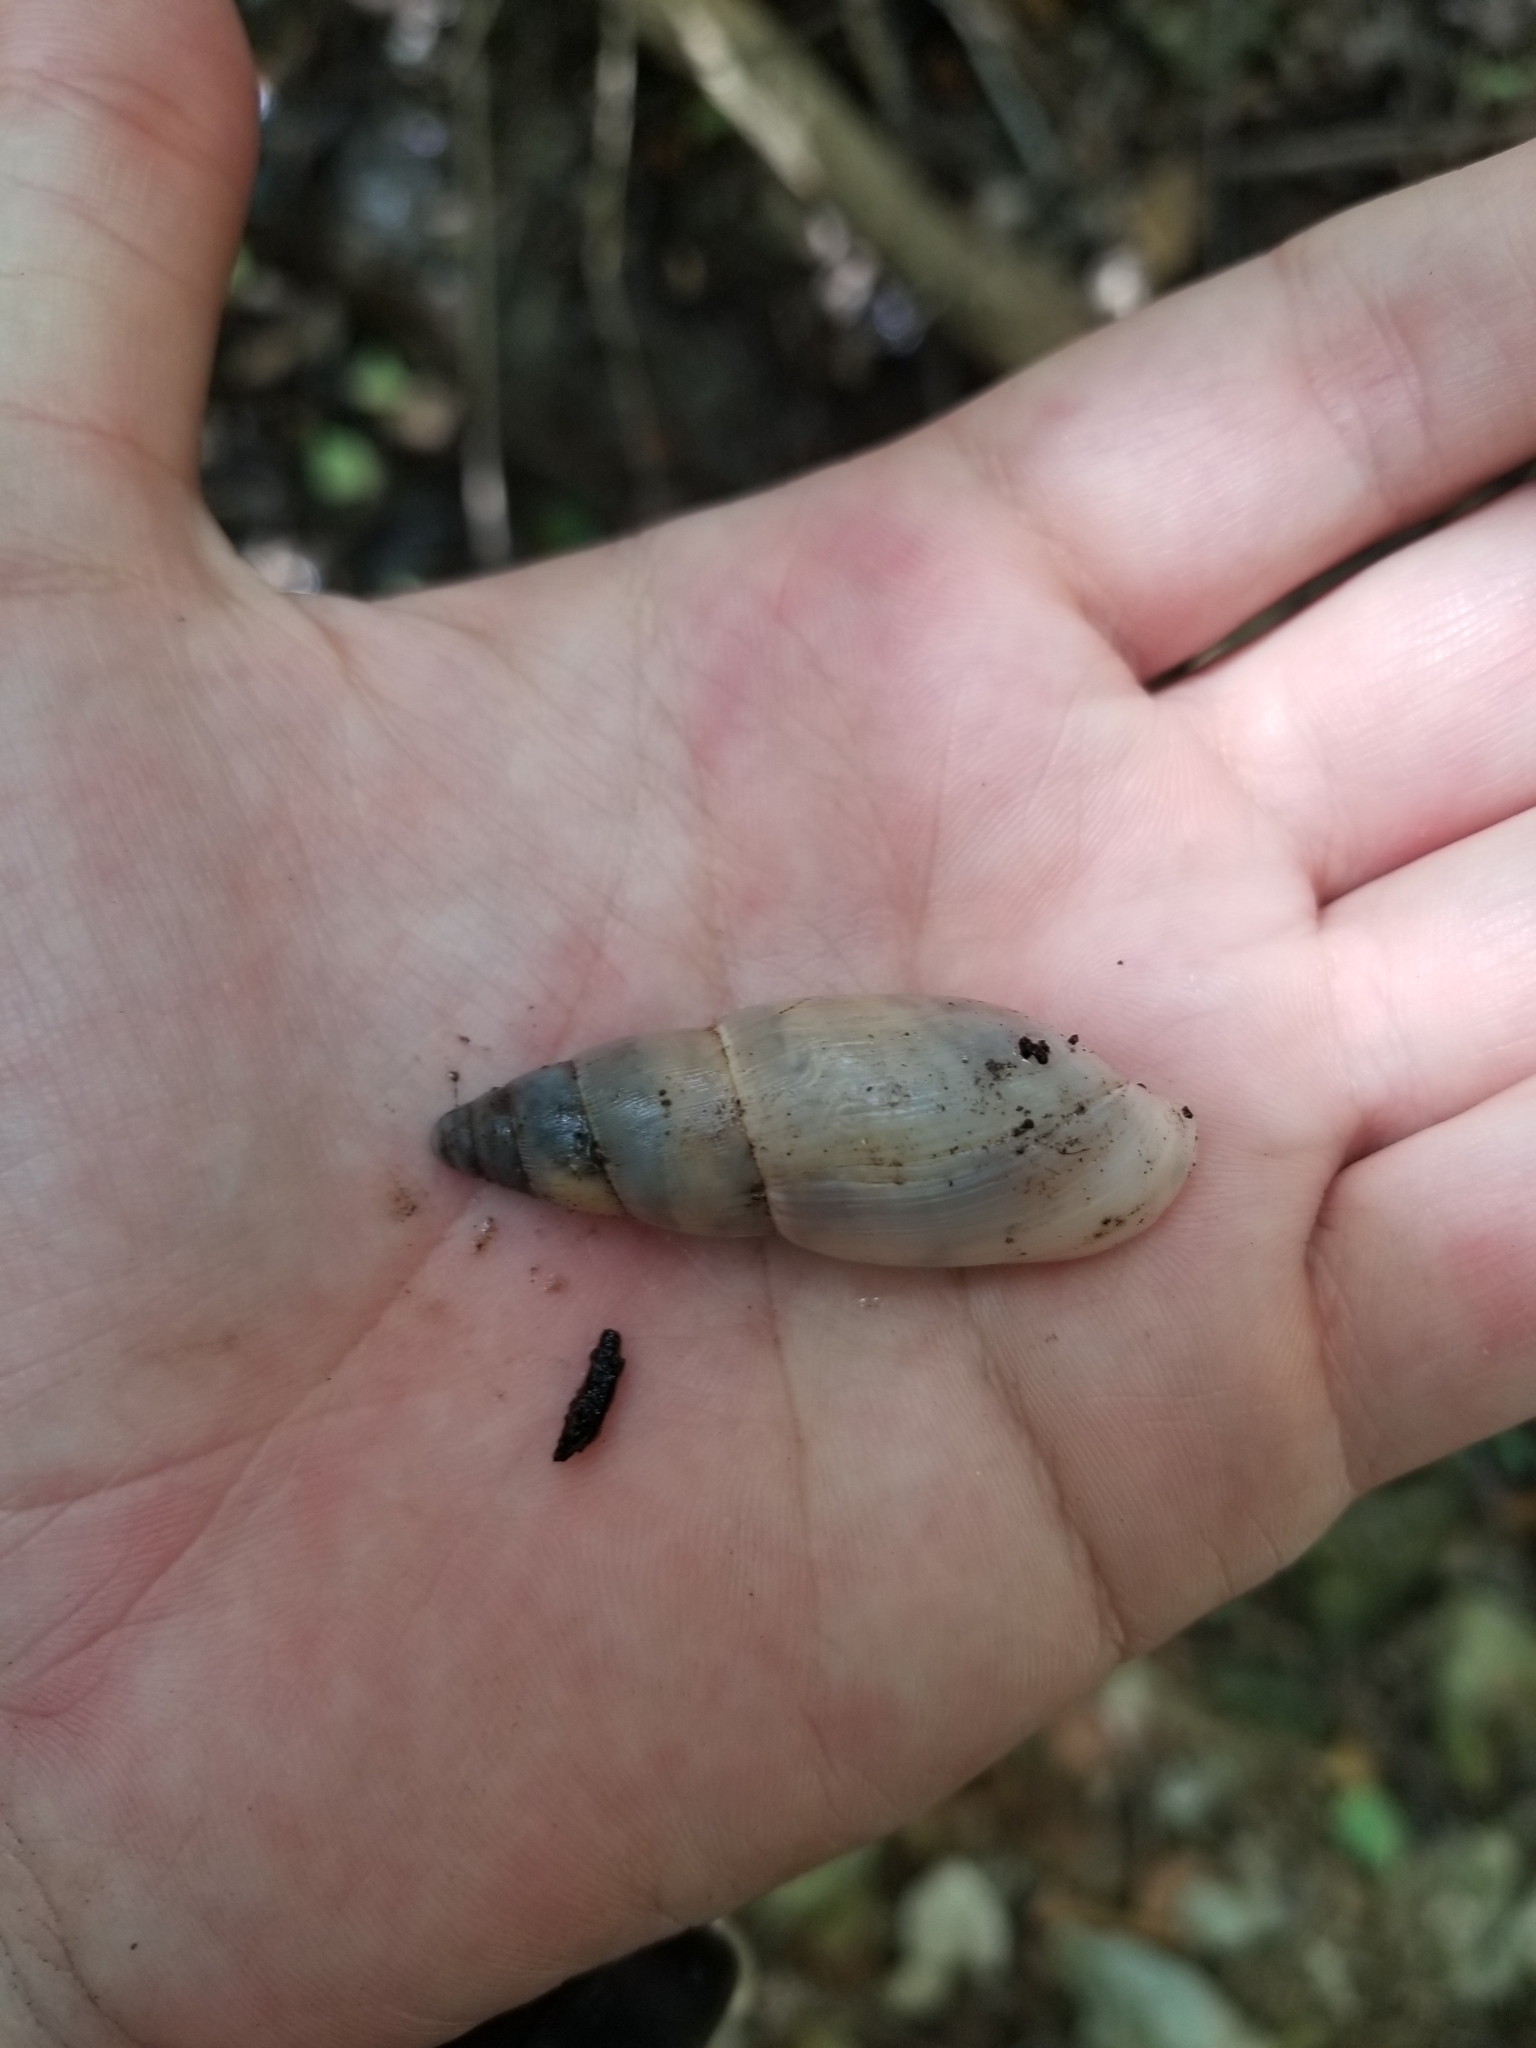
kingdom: Animalia
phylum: Mollusca
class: Gastropoda
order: Stylommatophora
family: Spiraxidae
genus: Euglandina
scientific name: Euglandina singleyana
